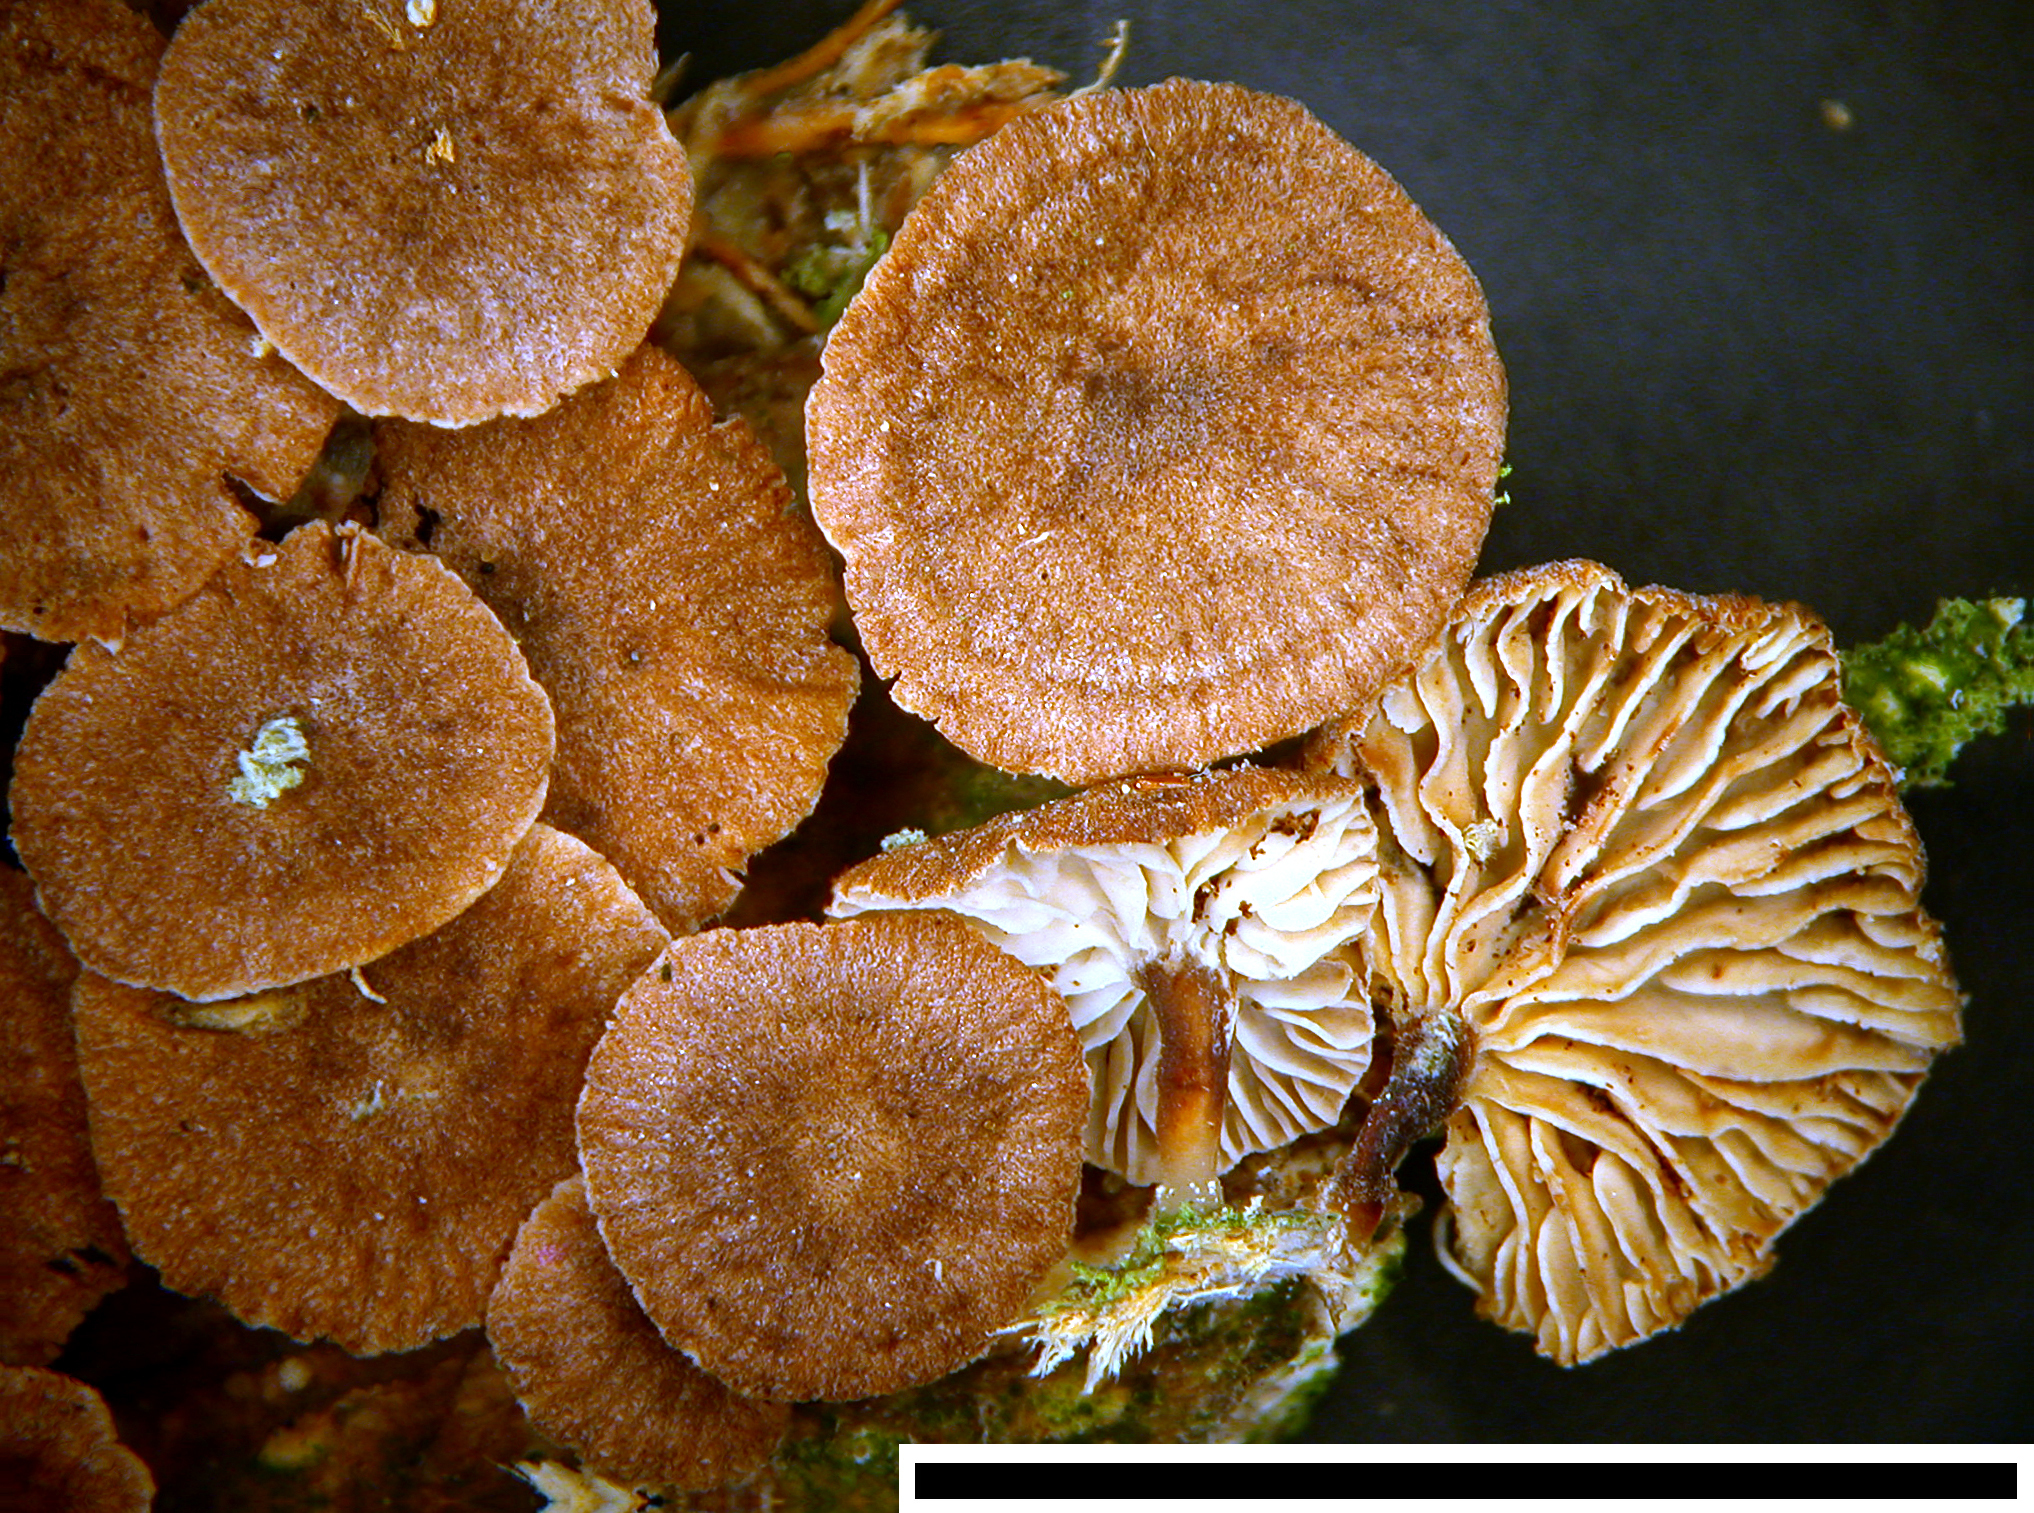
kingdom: Fungi
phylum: Basidiomycota
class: Agaricomycetes
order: Agaricales
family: Omphalotaceae
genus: Gymnopus
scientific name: Gymnopus hakaroa
